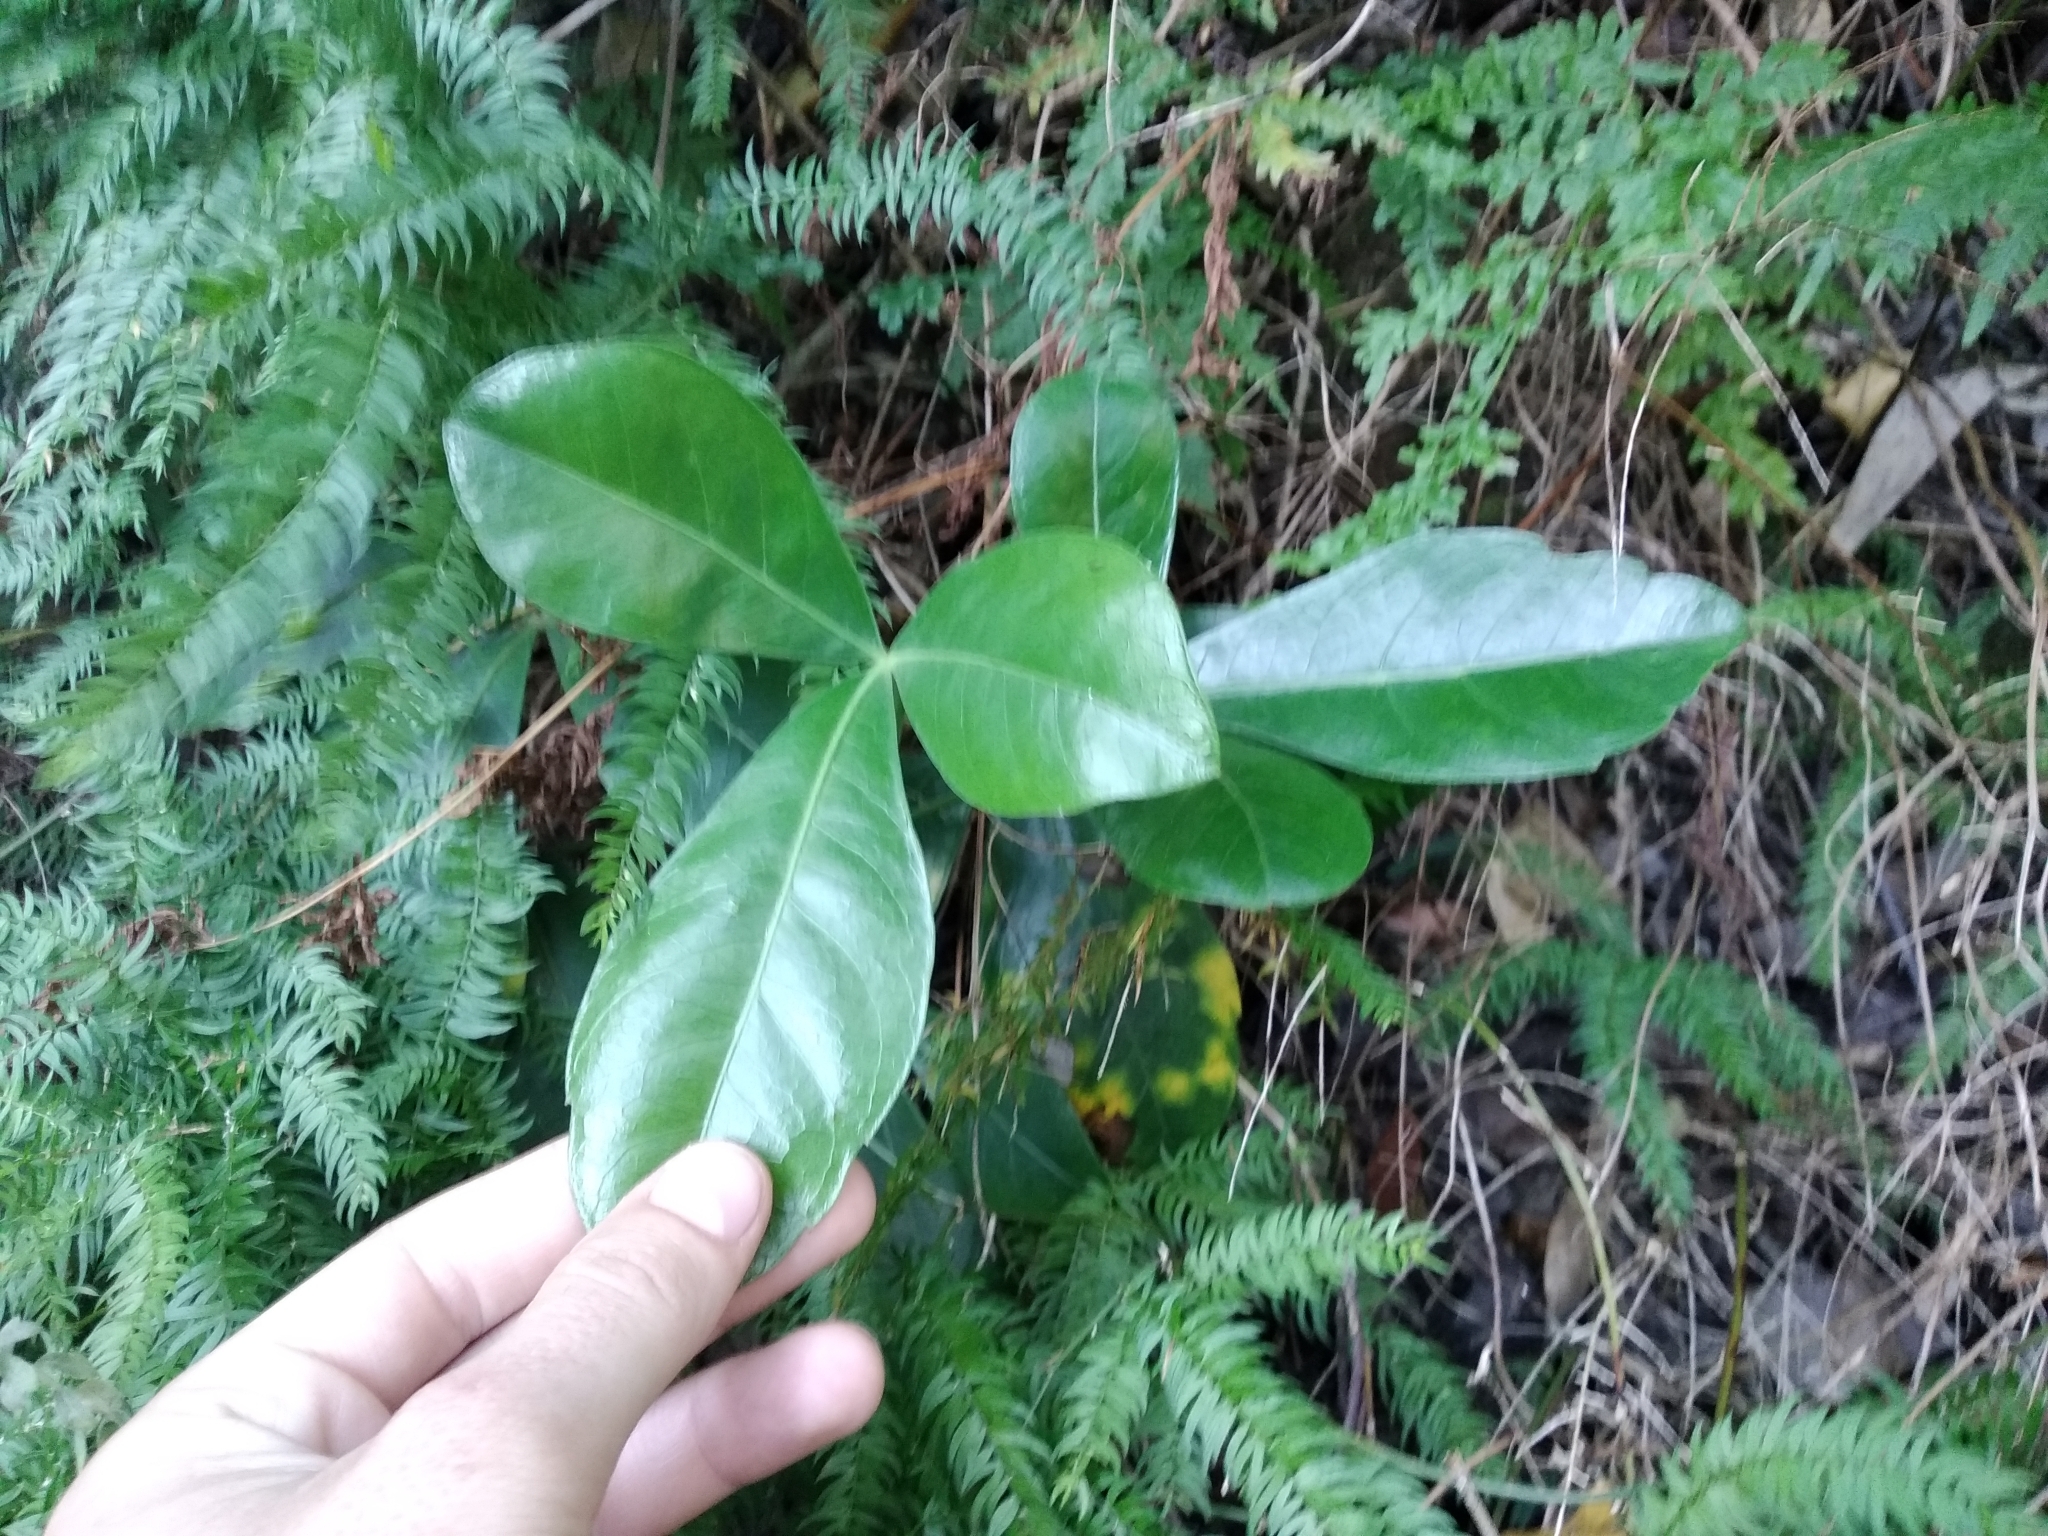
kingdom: Plantae
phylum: Tracheophyta
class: Magnoliopsida
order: Apiales
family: Araliaceae
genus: Cussonia
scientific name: Cussonia thyrsiflora
